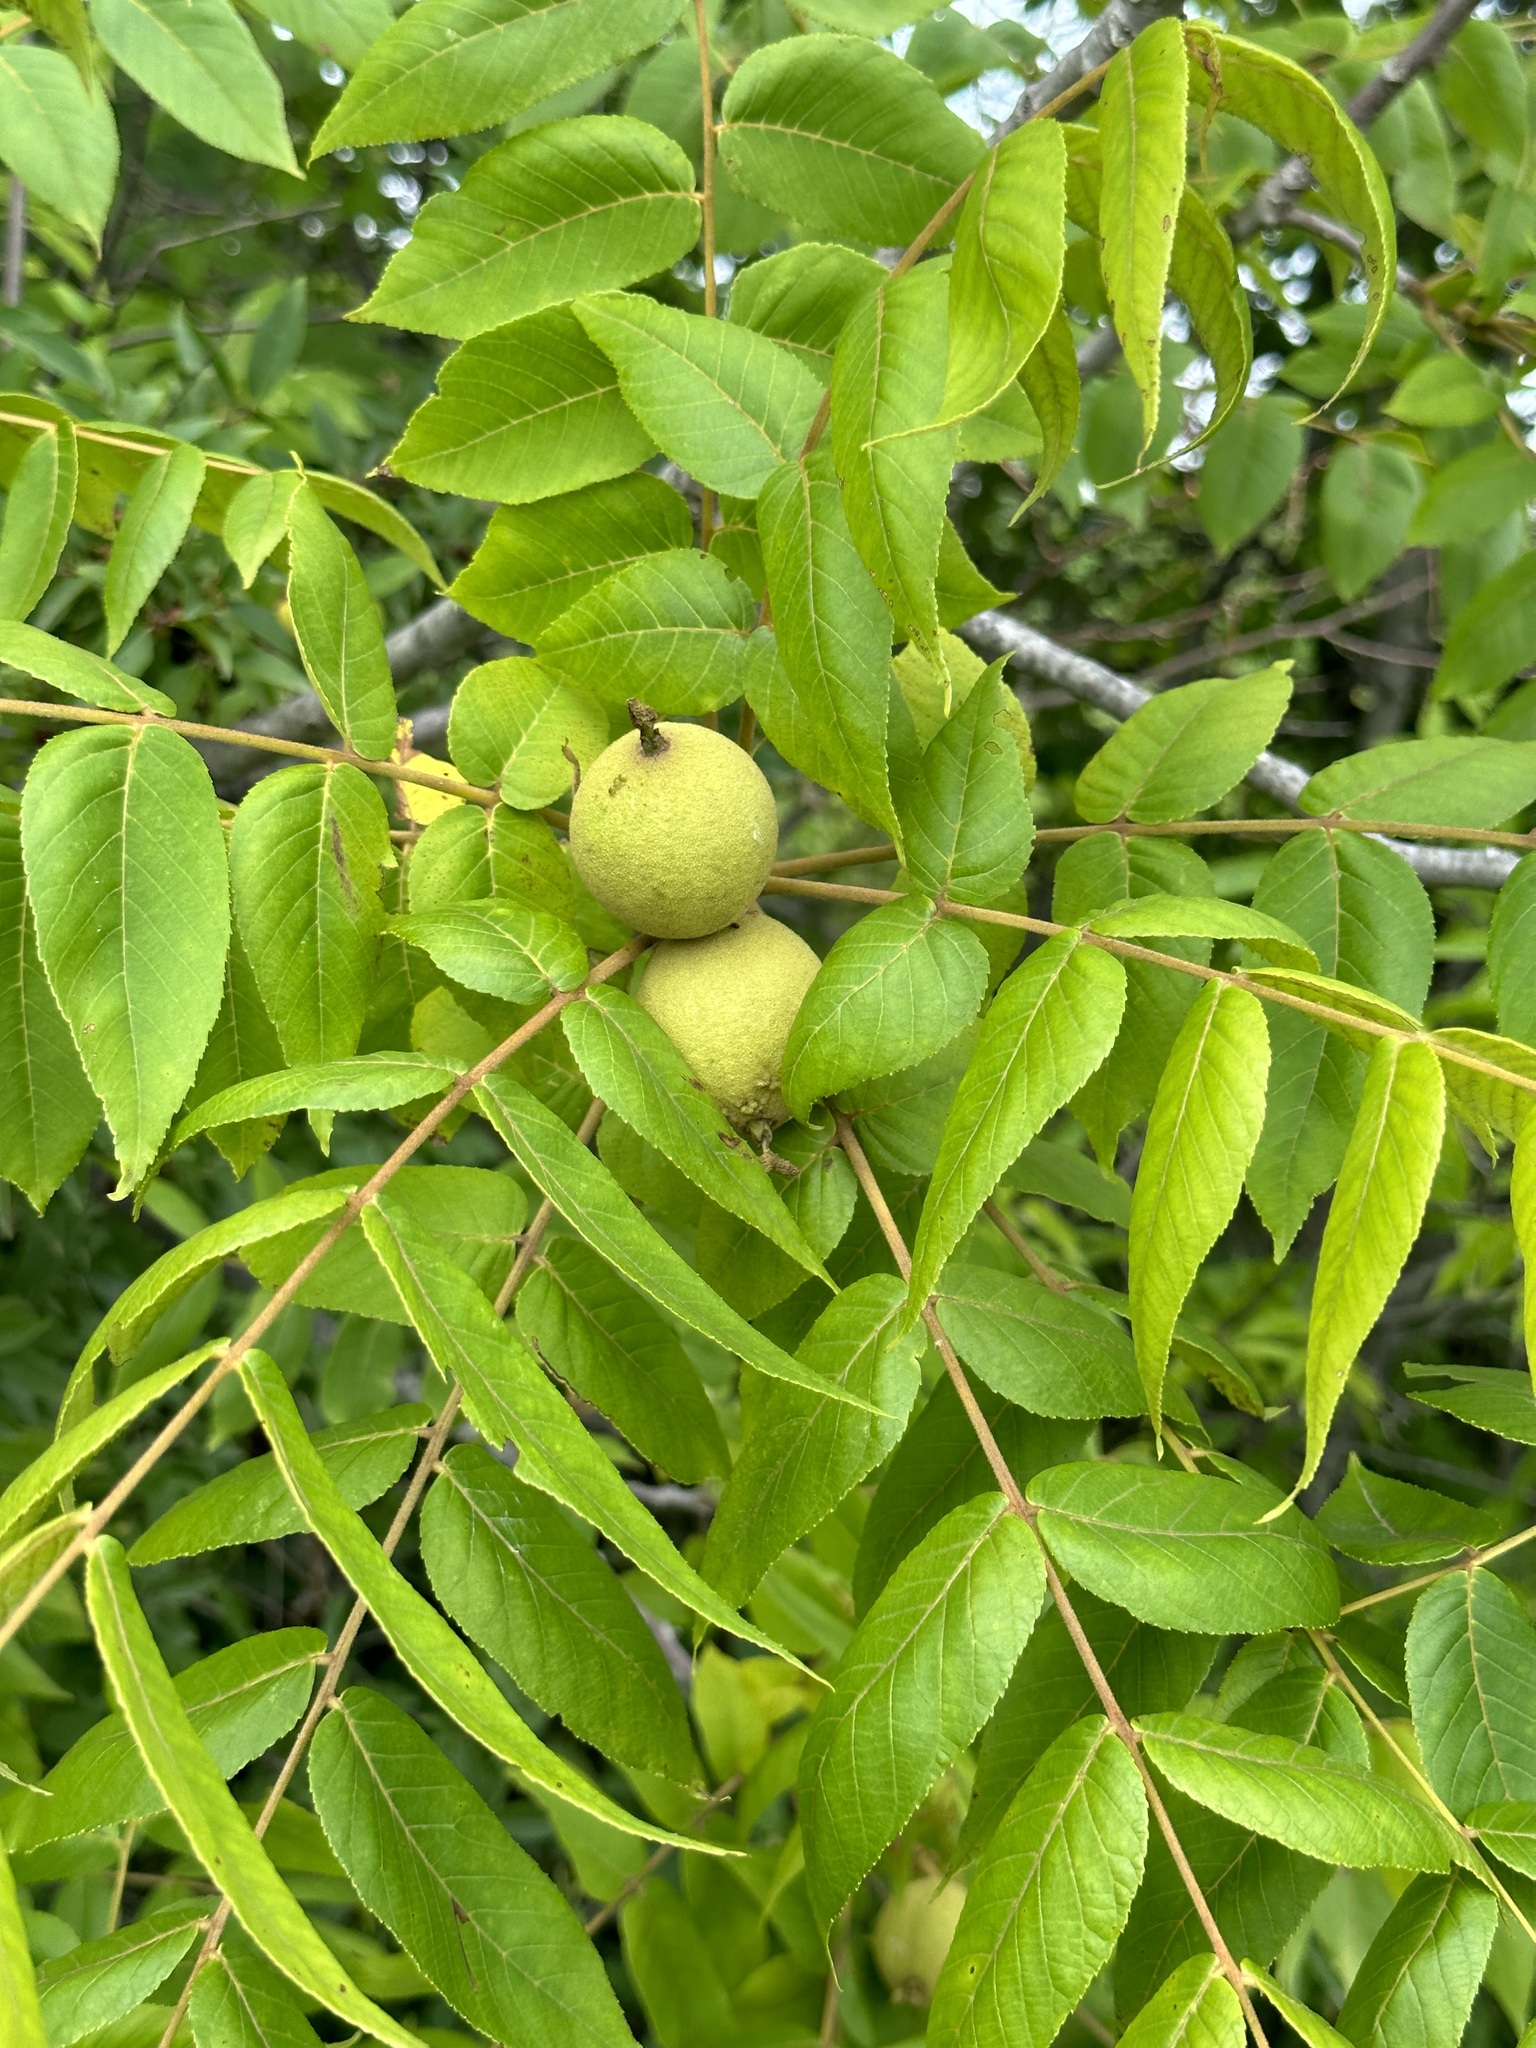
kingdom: Plantae
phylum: Tracheophyta
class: Magnoliopsida
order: Fagales
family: Juglandaceae
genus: Juglans
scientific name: Juglans nigra
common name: Black walnut
